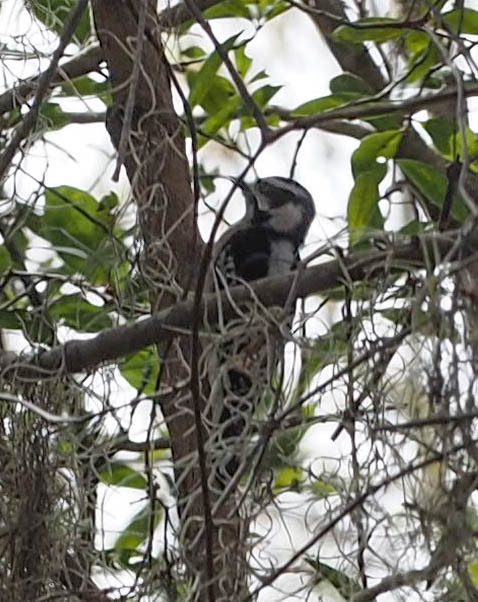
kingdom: Animalia
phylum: Chordata
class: Aves
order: Piciformes
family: Picidae
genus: Dryobates
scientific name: Dryobates pubescens
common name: Downy woodpecker
